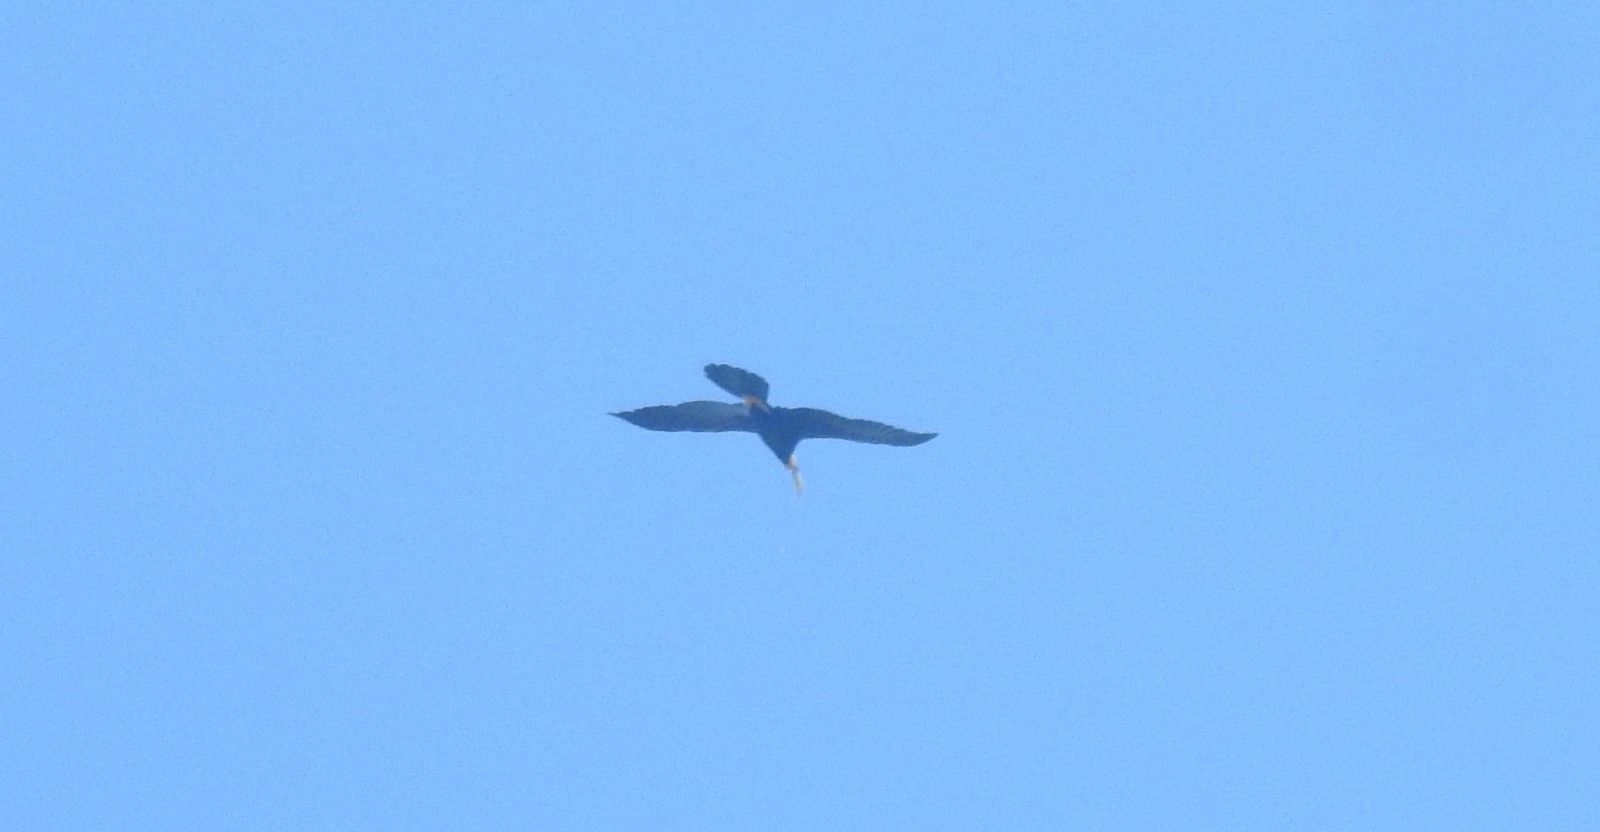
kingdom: Animalia
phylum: Chordata
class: Aves
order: Suliformes
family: Anhingidae
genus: Anhinga
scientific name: Anhinga melanogaster
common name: Oriental darter
